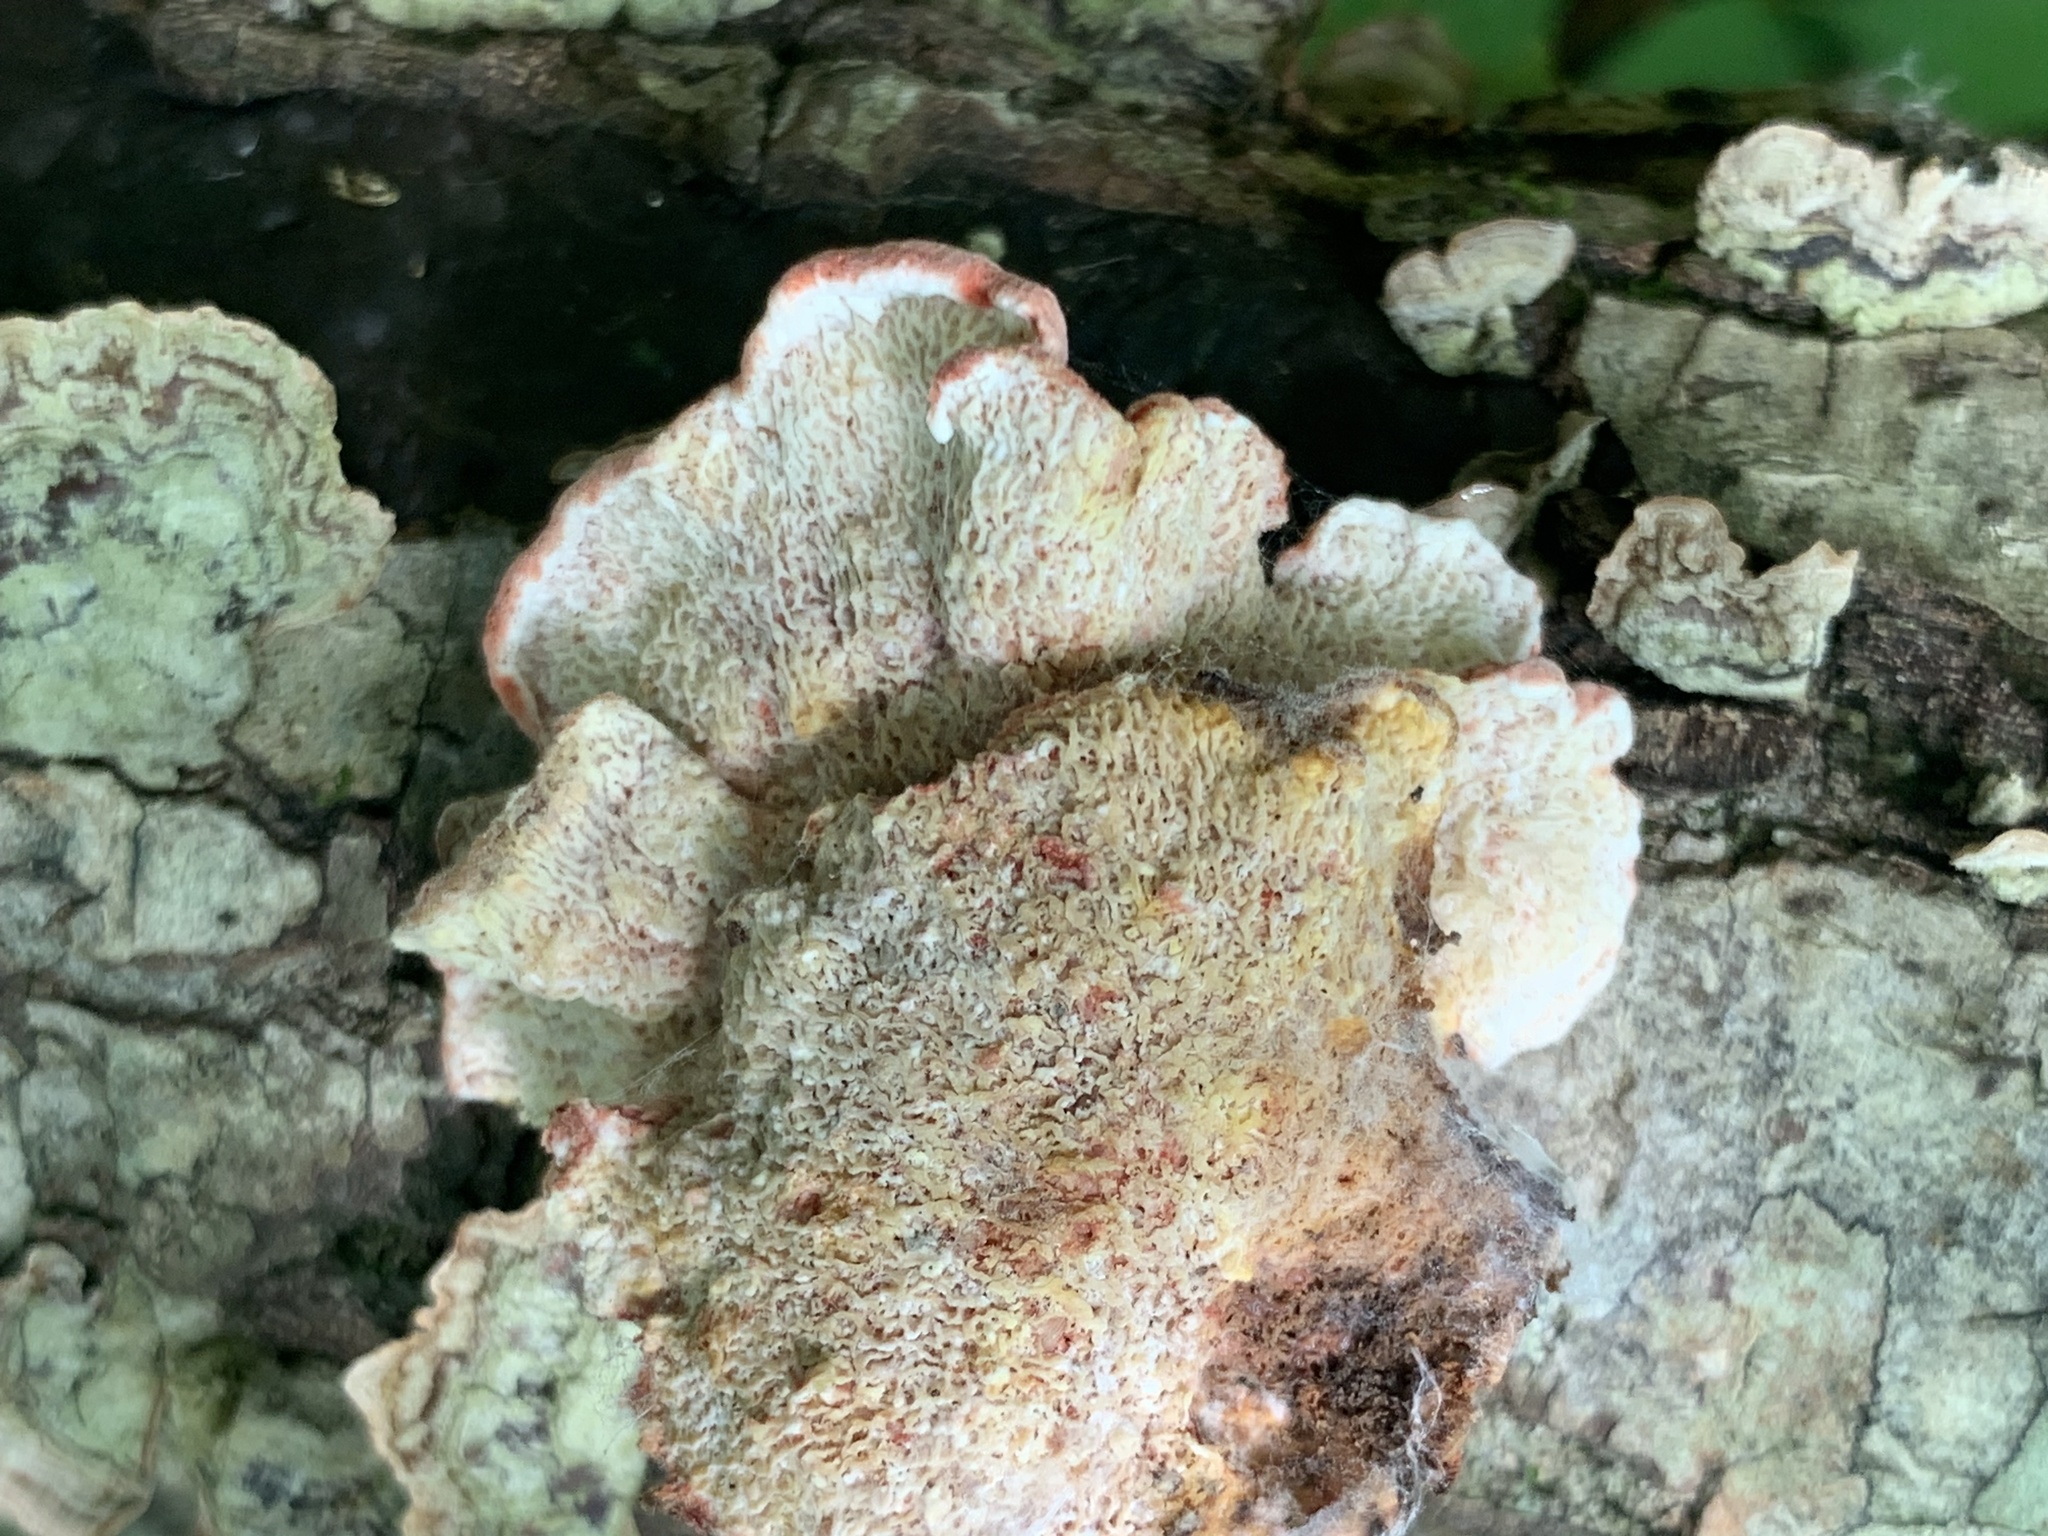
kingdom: Fungi
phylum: Basidiomycota
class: Agaricomycetes
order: Polyporales
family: Irpicaceae
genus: Byssomerulius
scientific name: Byssomerulius incarnatus
